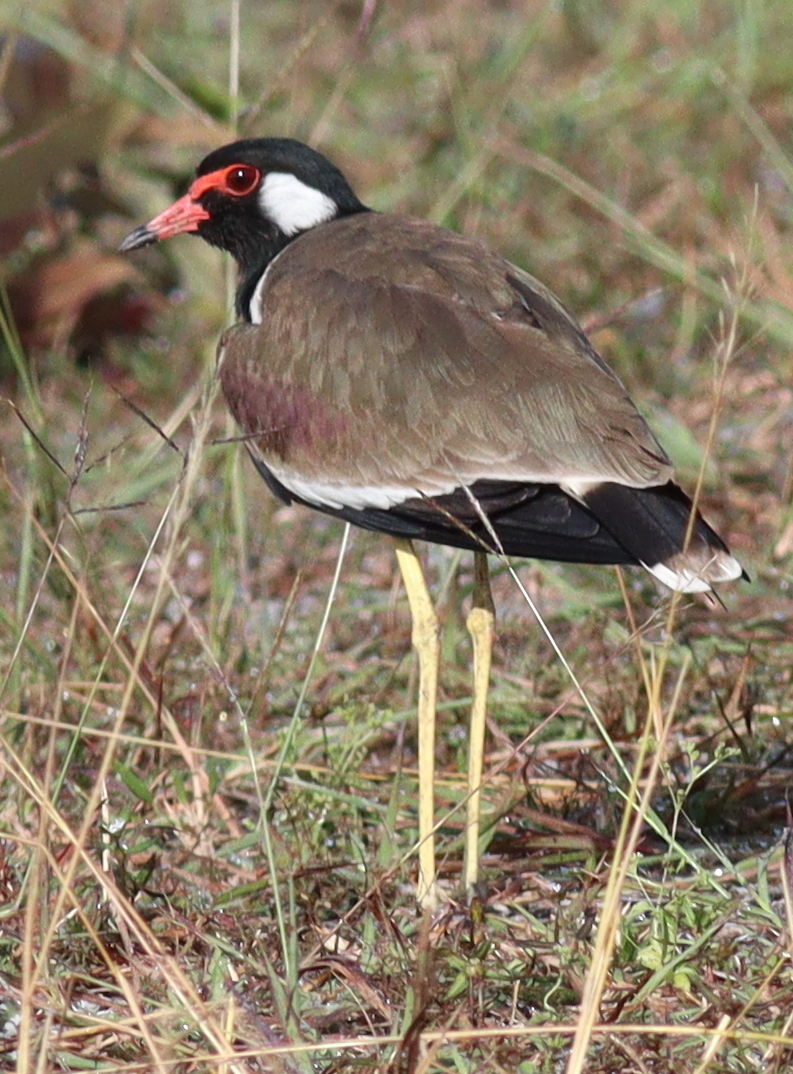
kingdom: Animalia
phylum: Chordata
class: Aves
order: Charadriiformes
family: Charadriidae
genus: Vanellus
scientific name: Vanellus indicus
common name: Red-wattled lapwing
